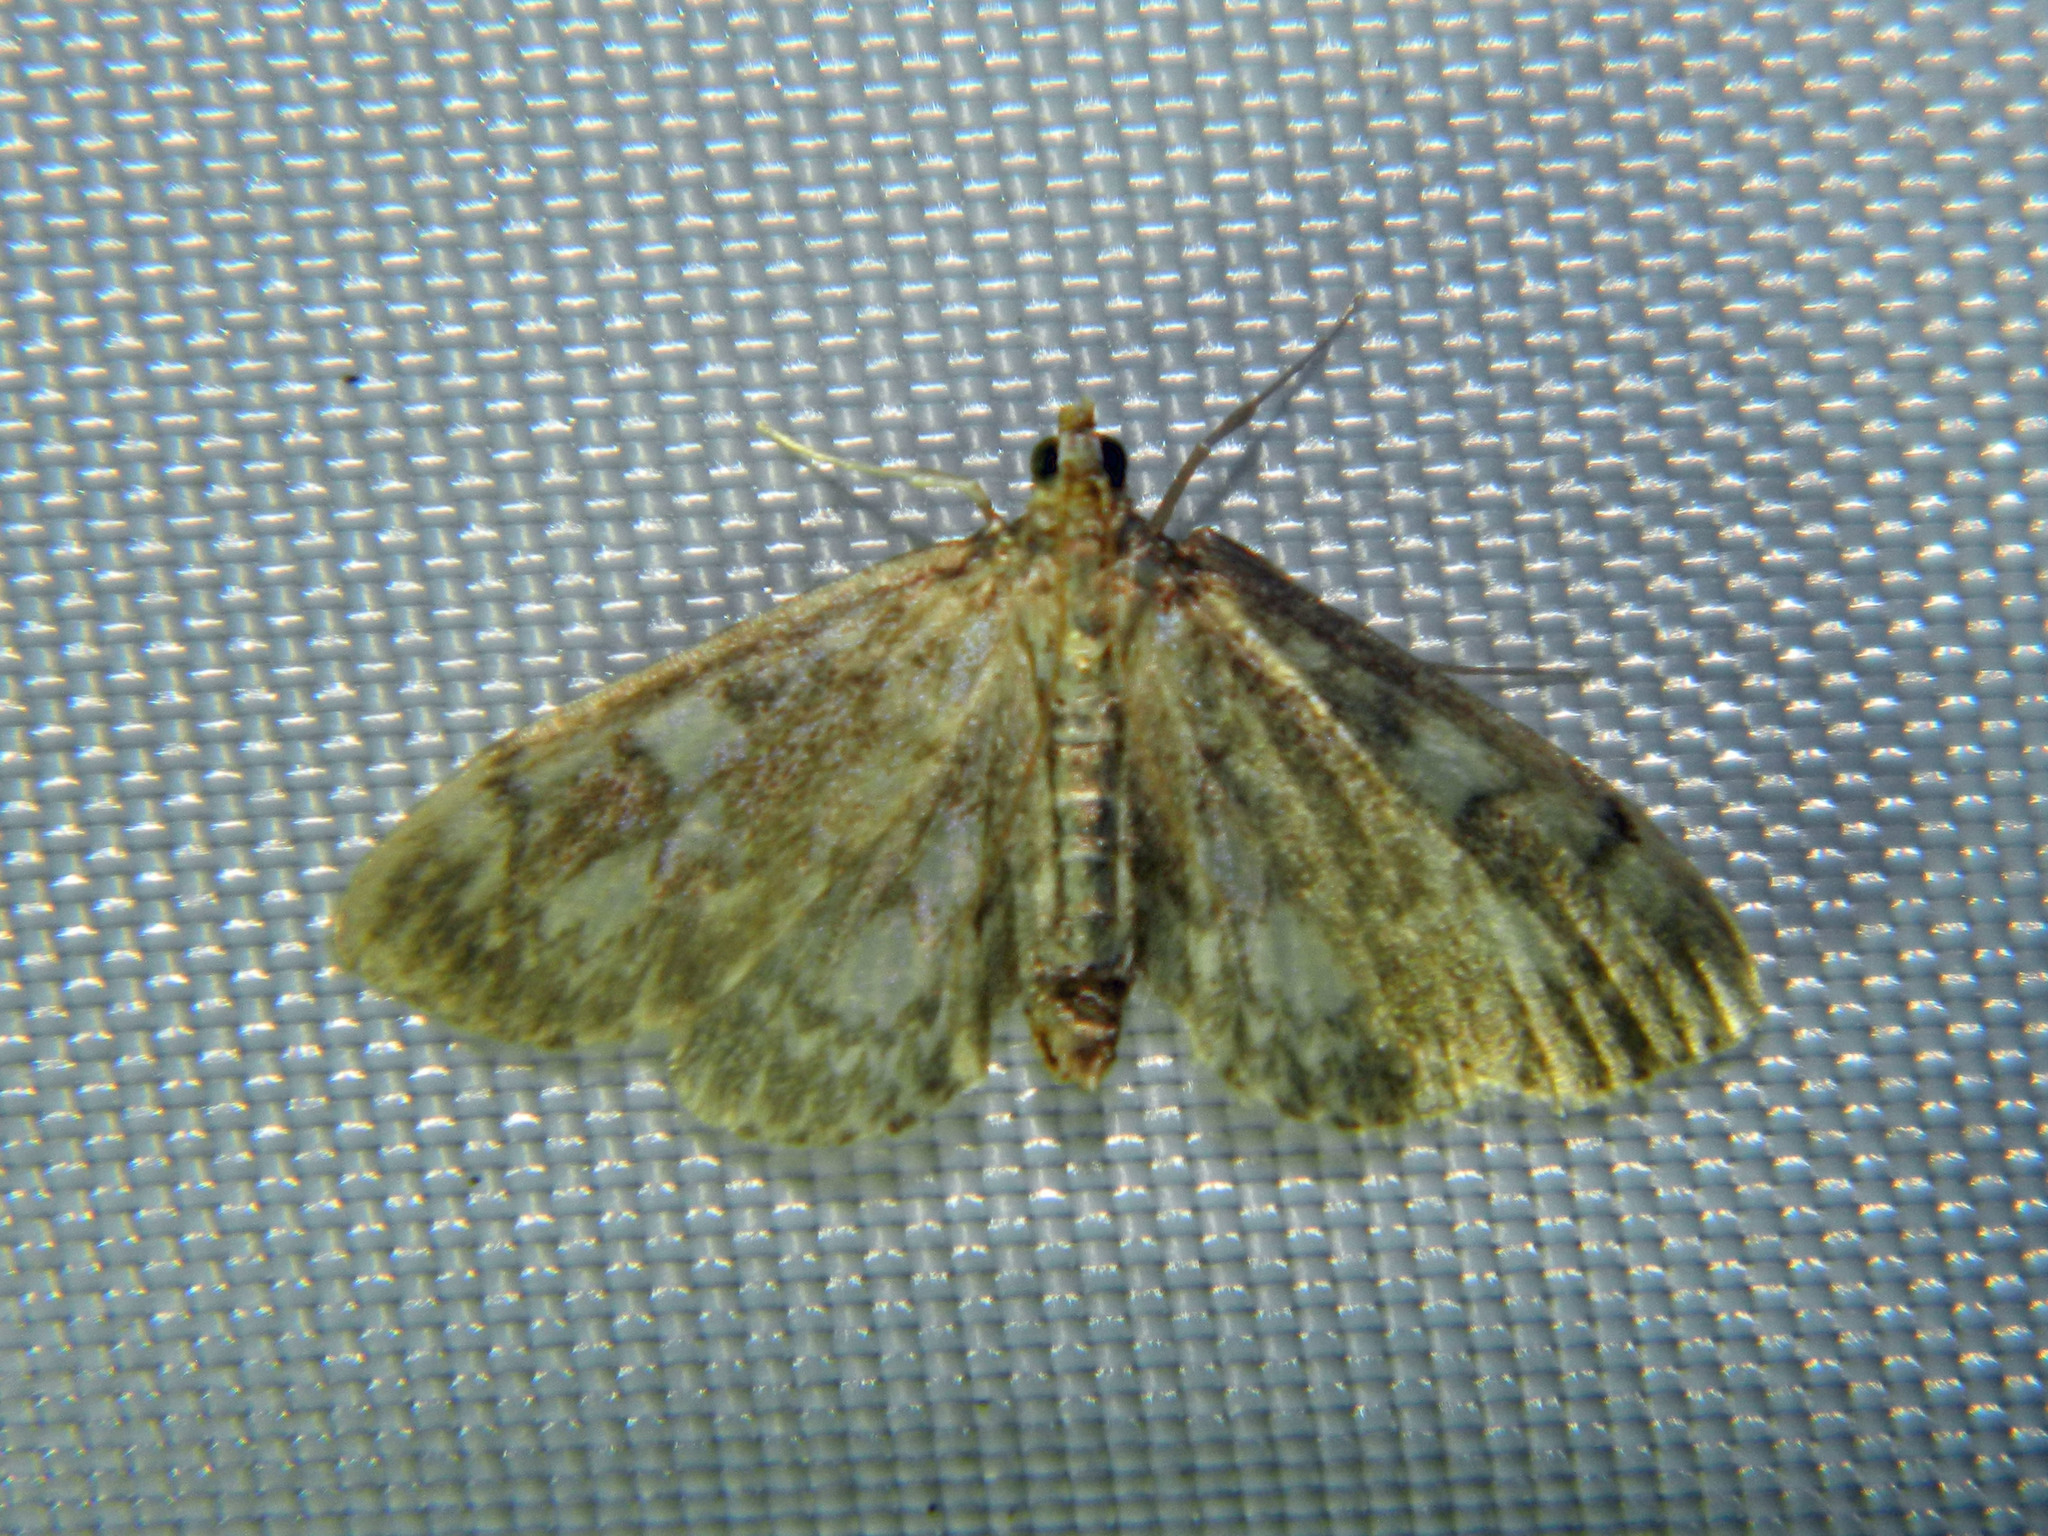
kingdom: Animalia
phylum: Arthropoda
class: Insecta
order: Lepidoptera
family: Crambidae
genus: Anania
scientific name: Anania
